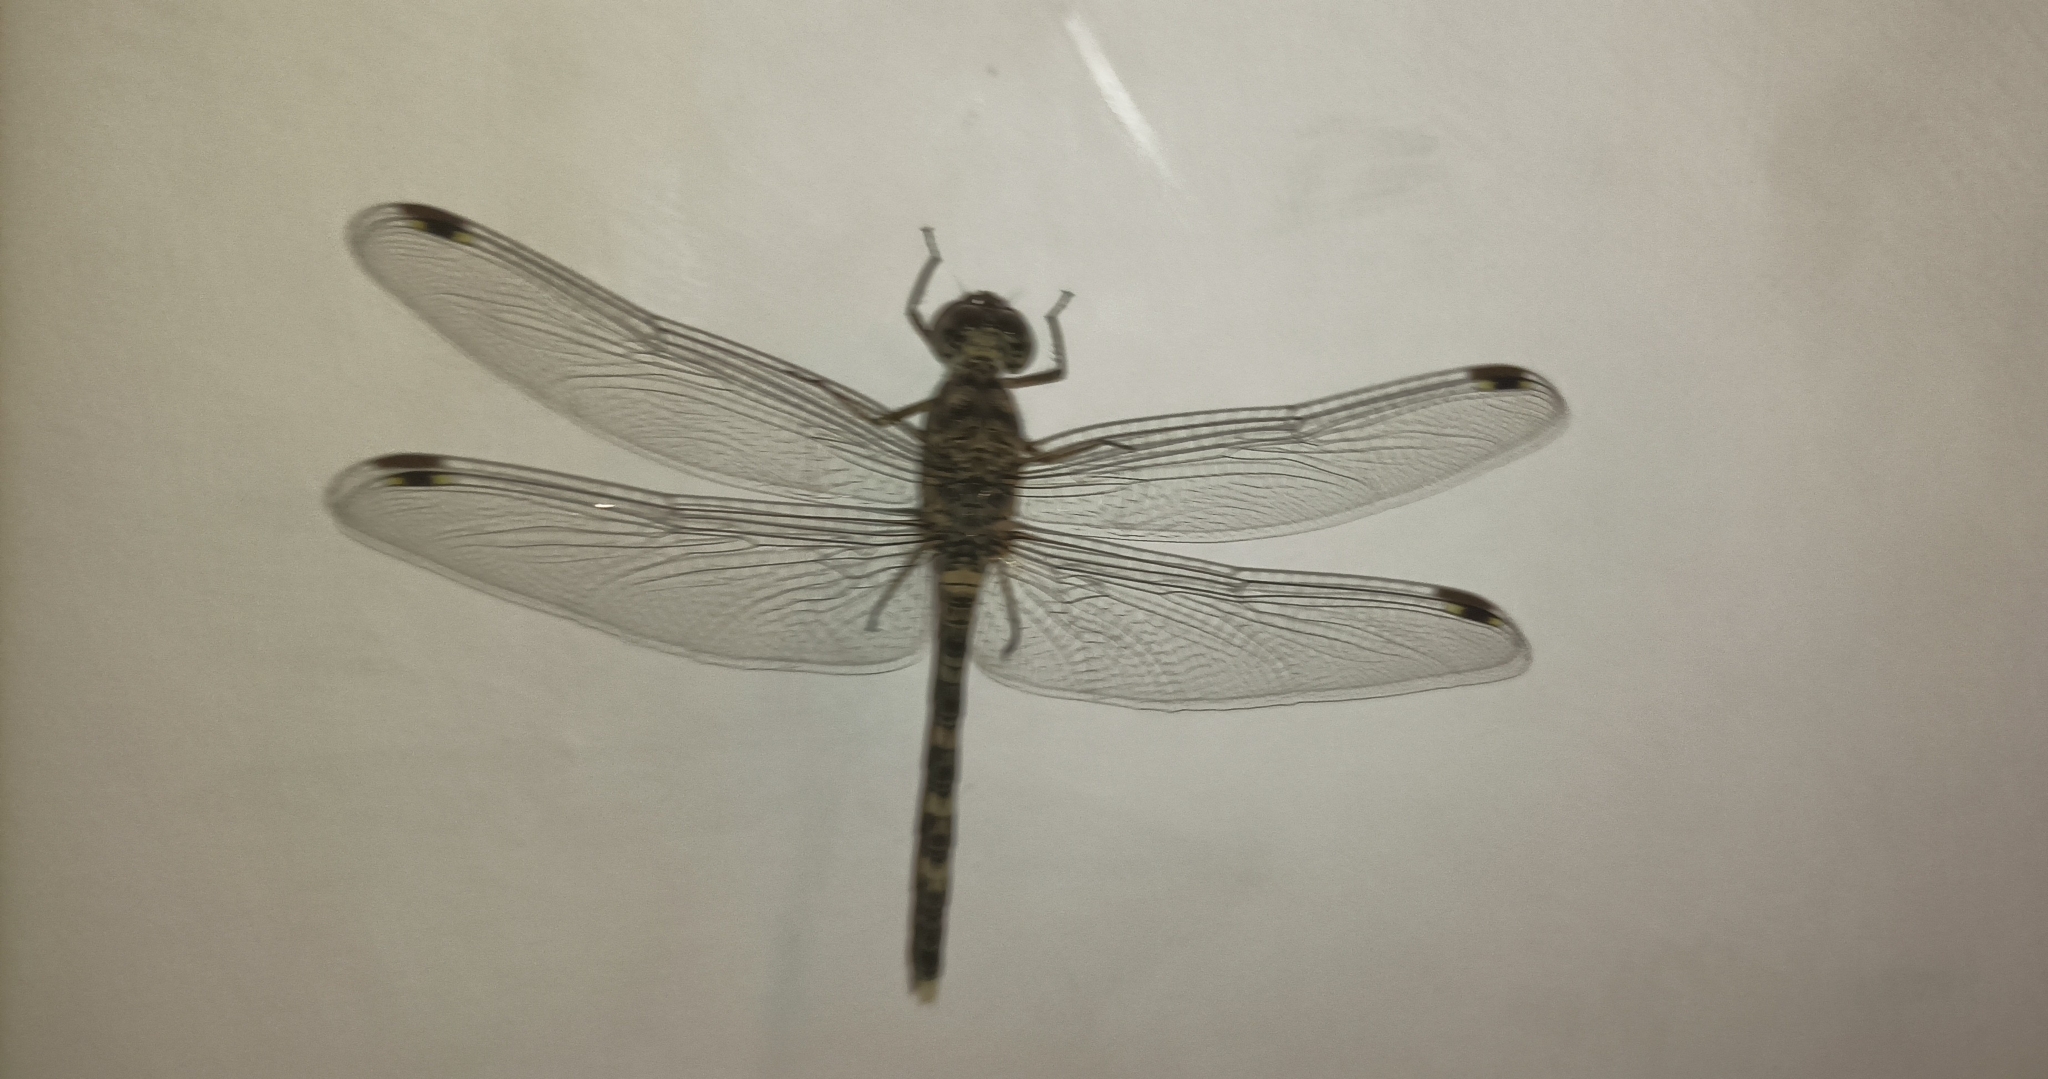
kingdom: Animalia
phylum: Arthropoda
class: Insecta
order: Odonata
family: Libellulidae
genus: Bradinopyga
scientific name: Bradinopyga geminata
